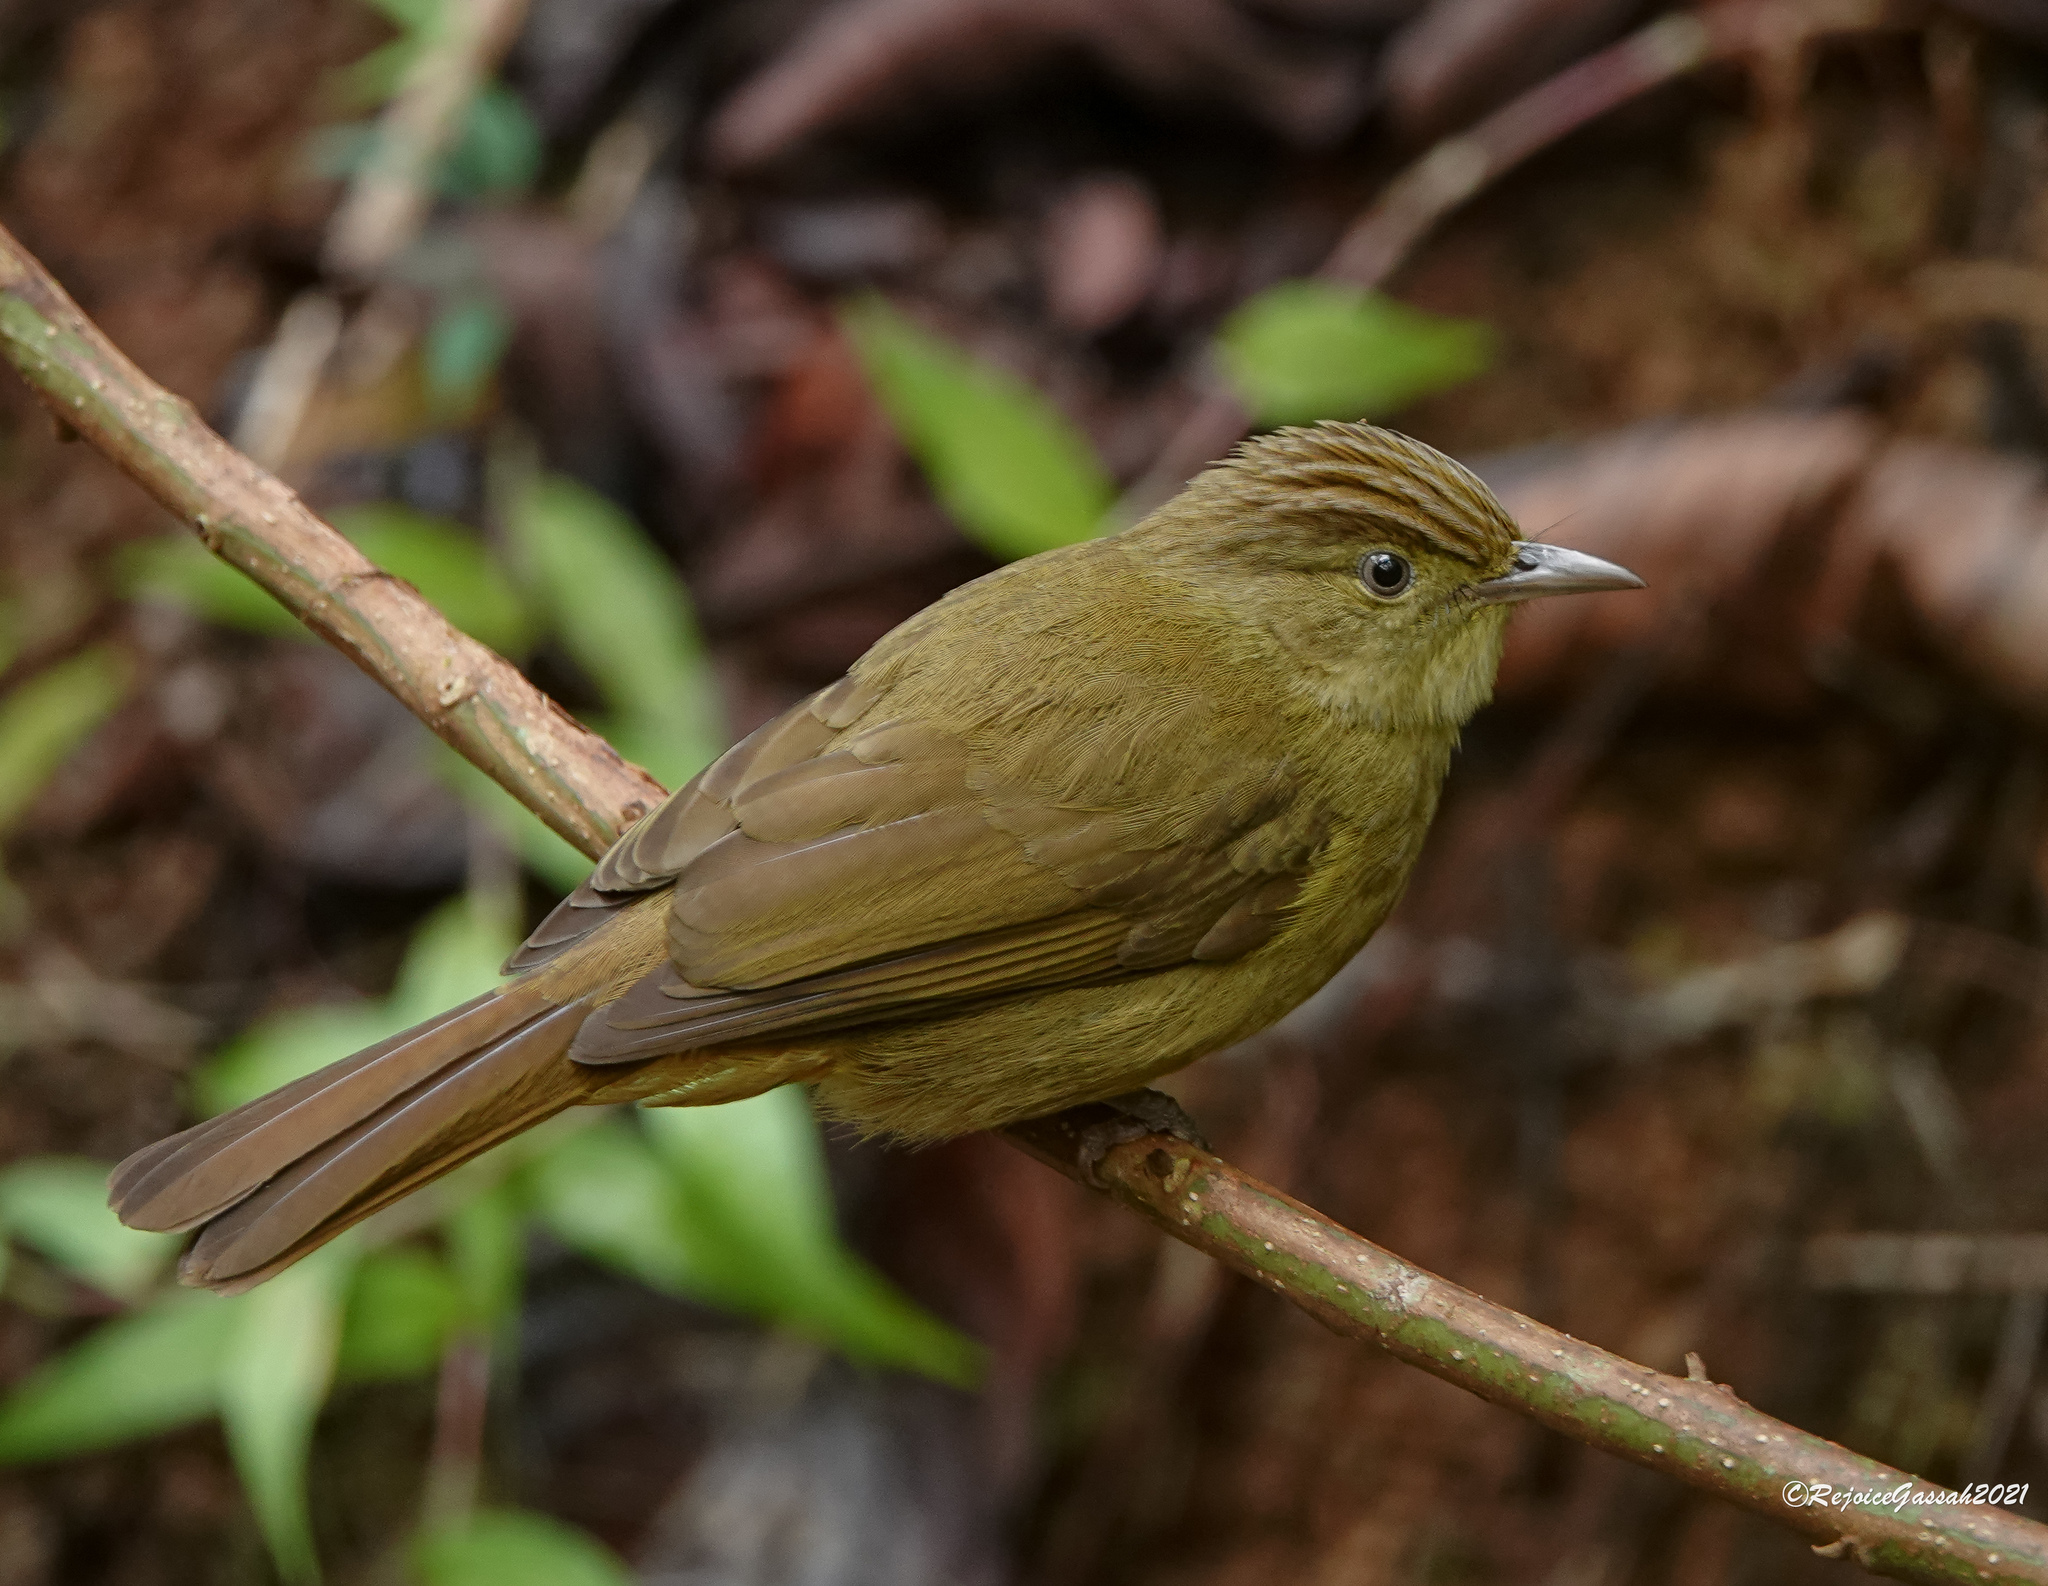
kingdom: Animalia
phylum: Chordata
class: Aves
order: Passeriformes
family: Pycnonotidae
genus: Iole
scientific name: Iole virescens
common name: Olive bulbul
